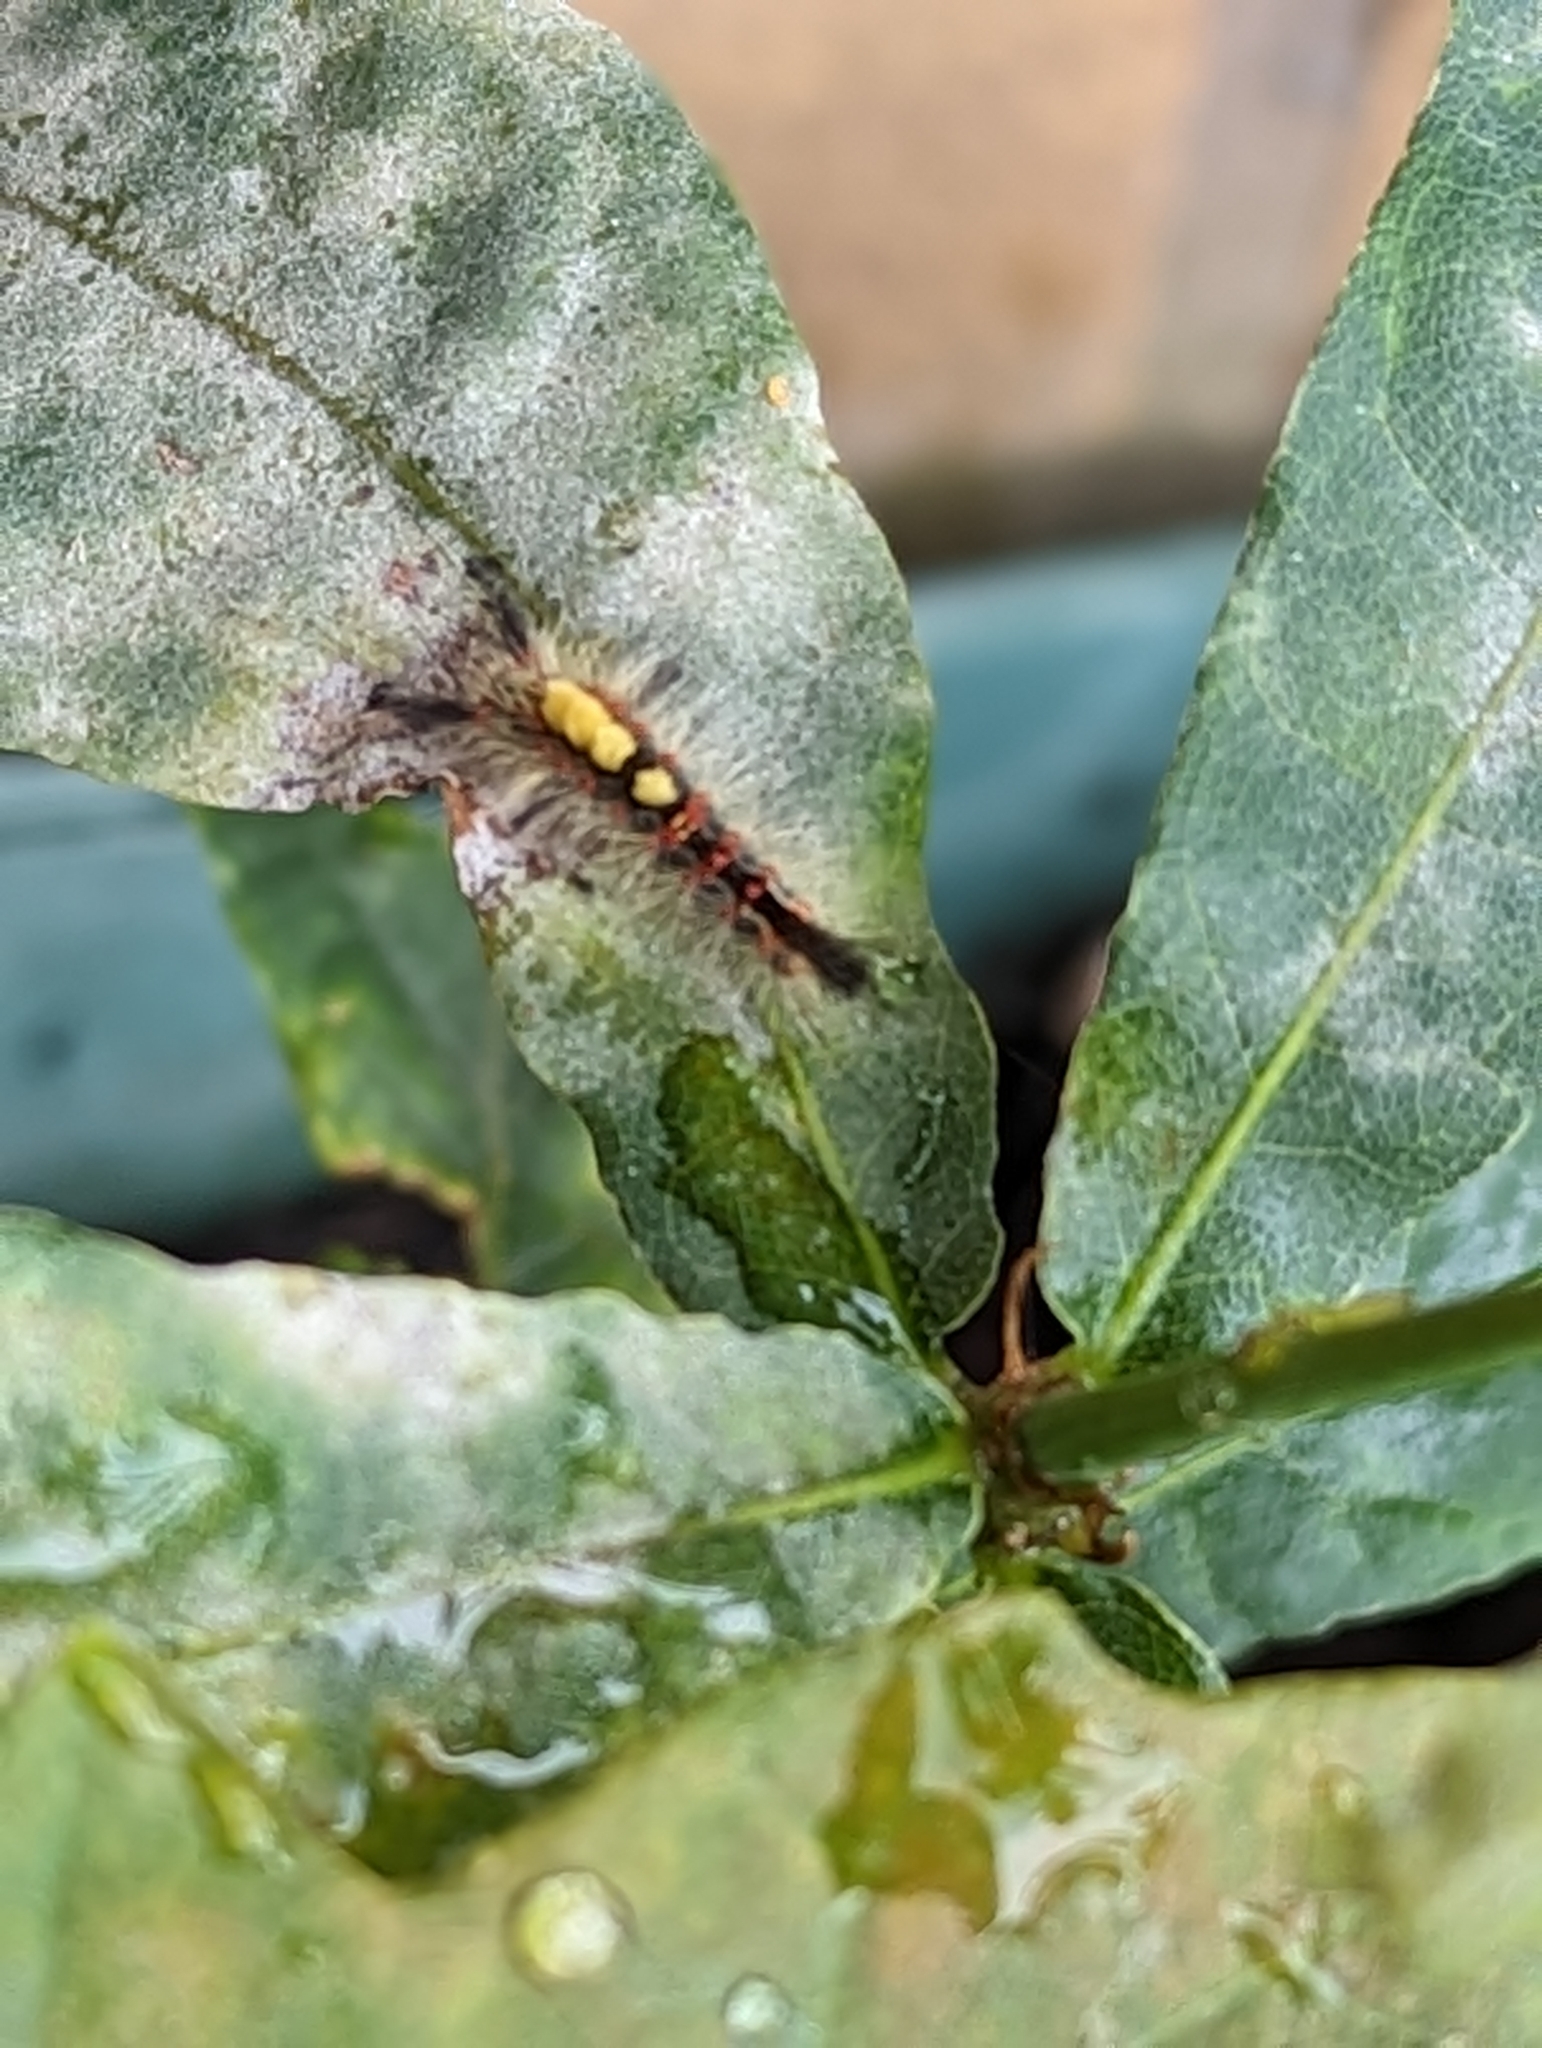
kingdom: Animalia
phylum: Arthropoda
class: Insecta
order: Lepidoptera
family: Erebidae
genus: Orgyia
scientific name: Orgyia antiqua
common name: Vapourer
